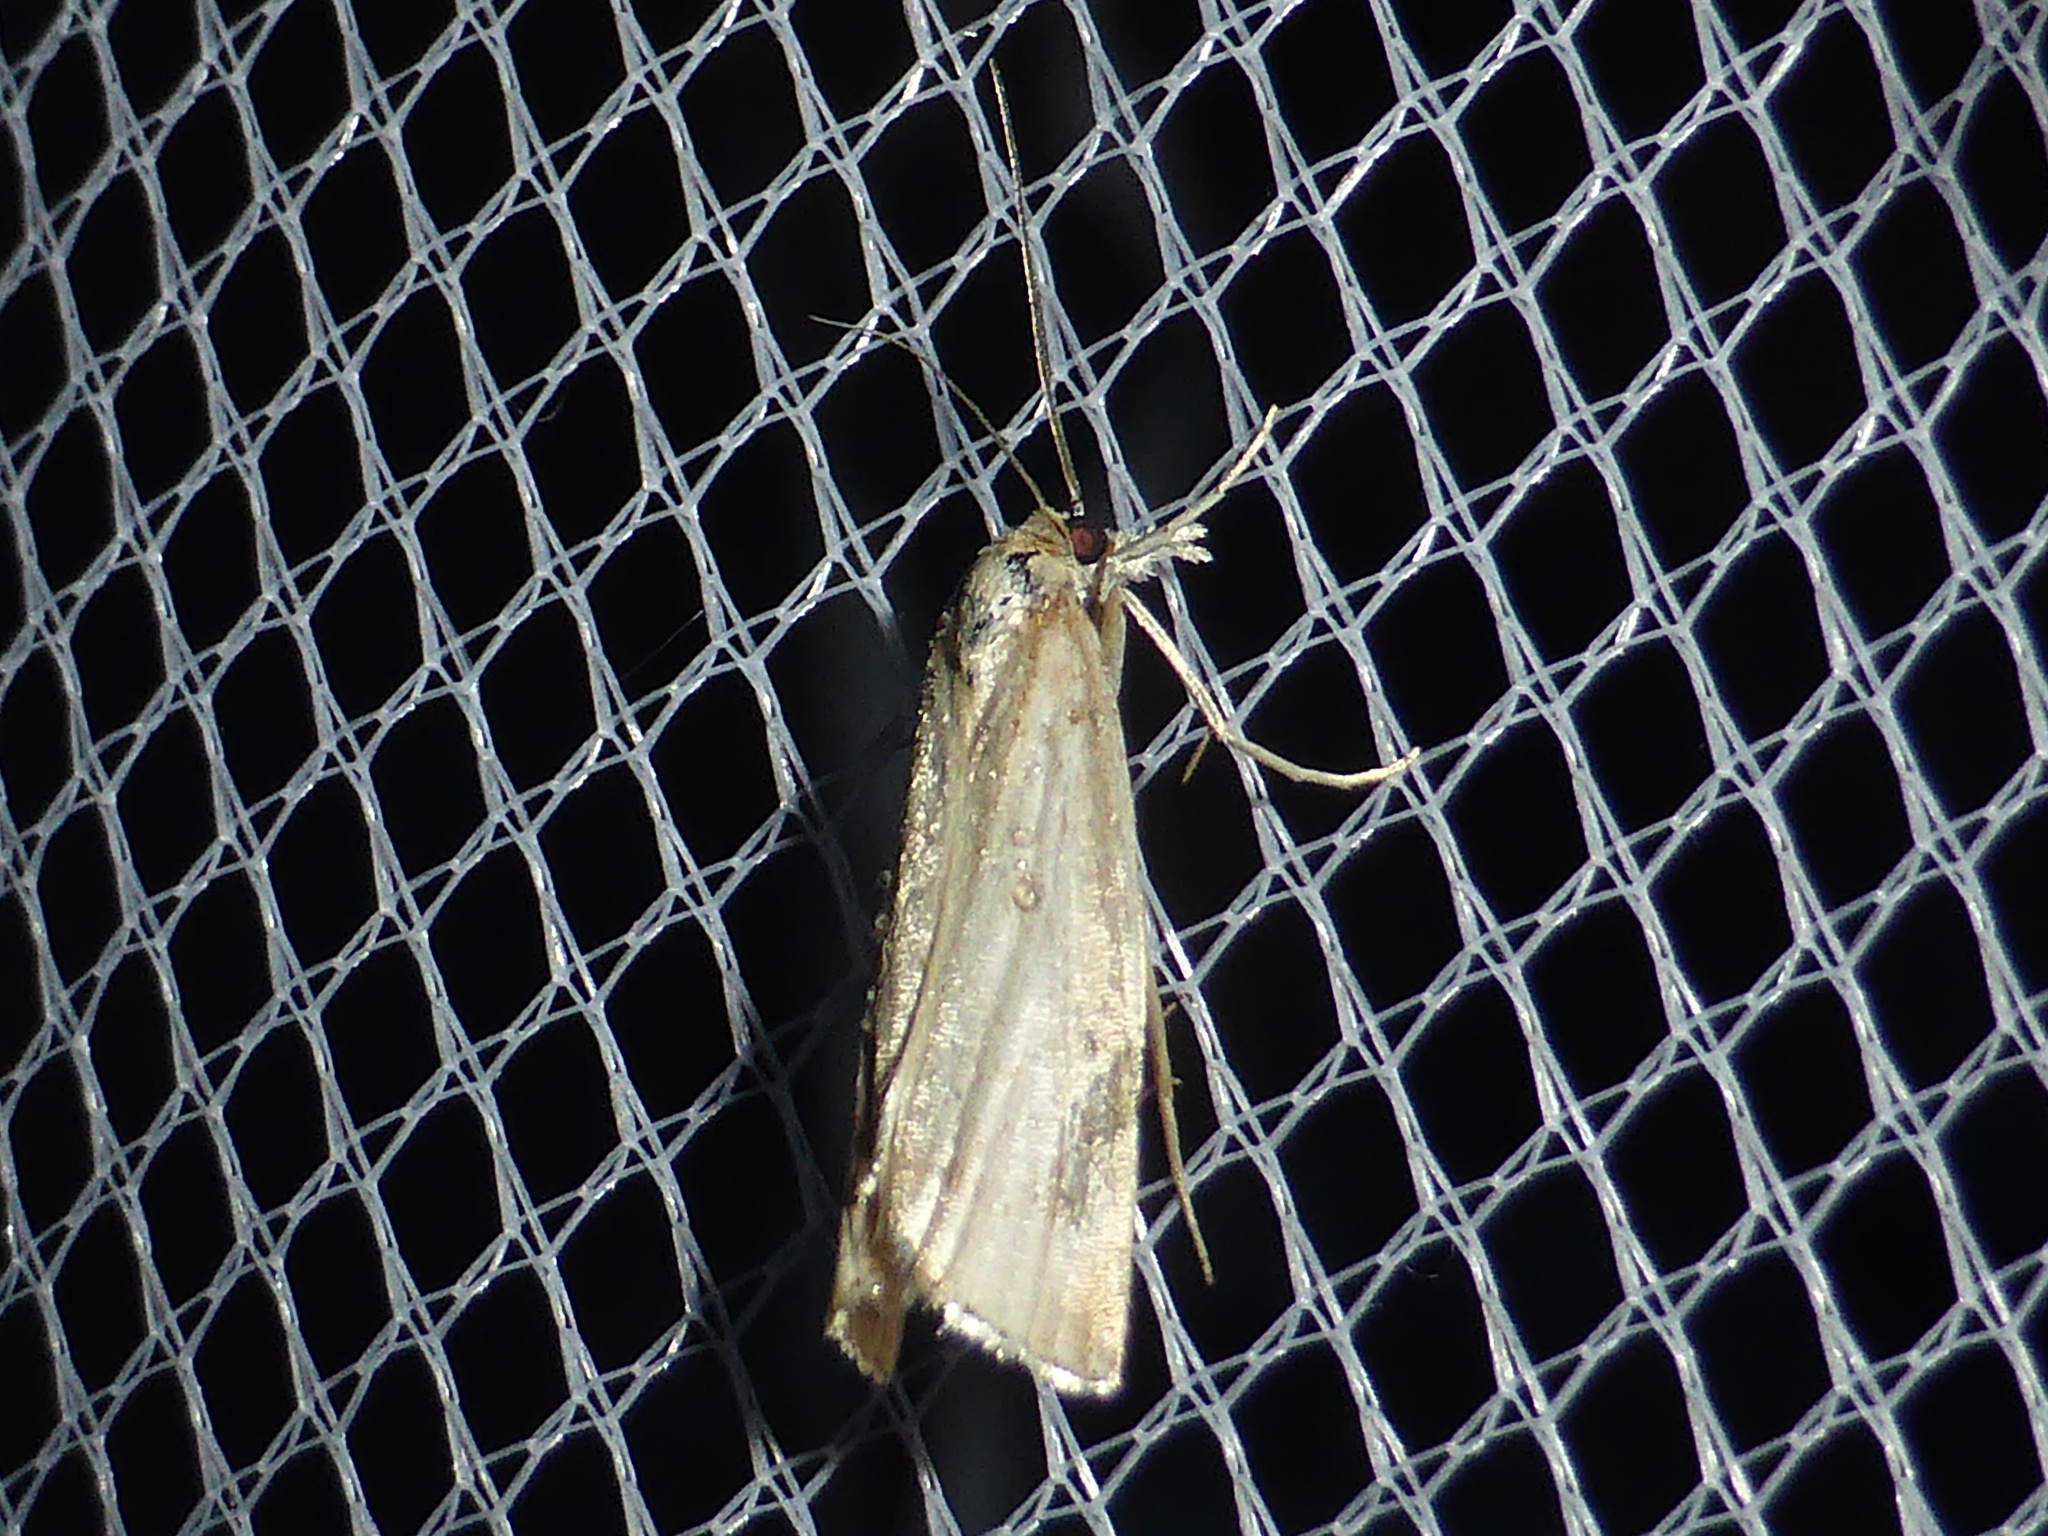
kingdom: Animalia
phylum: Arthropoda
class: Insecta
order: Lepidoptera
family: Crambidae
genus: Agriphila
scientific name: Agriphila straminella
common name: Straw grass-veneer
